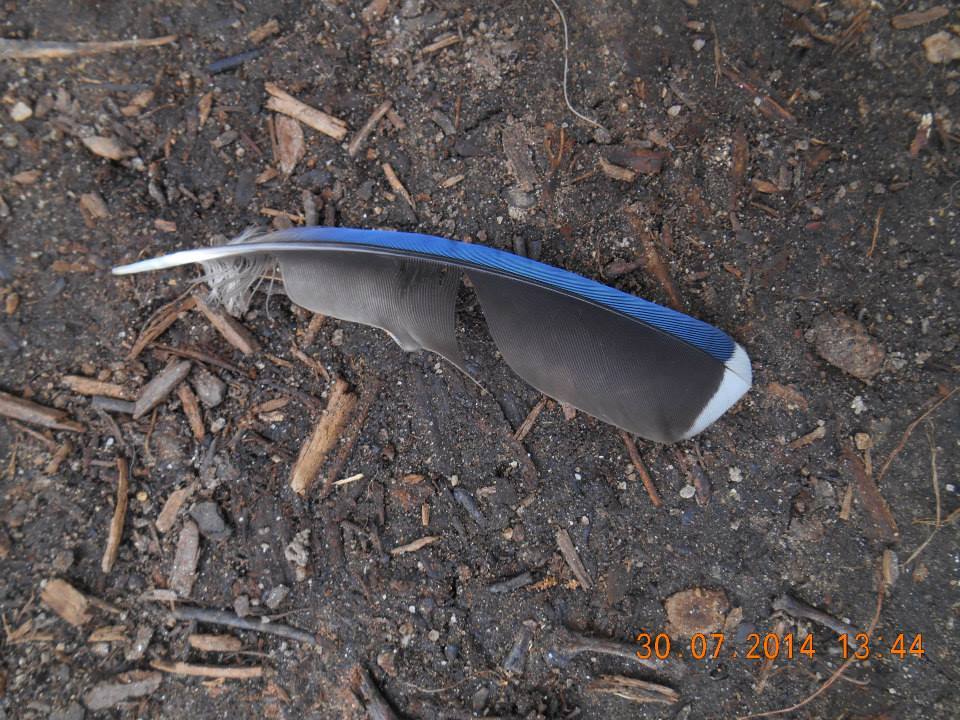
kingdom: Animalia
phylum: Chordata
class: Aves
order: Passeriformes
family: Corvidae
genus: Cyanocitta
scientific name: Cyanocitta cristata
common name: Blue jay
